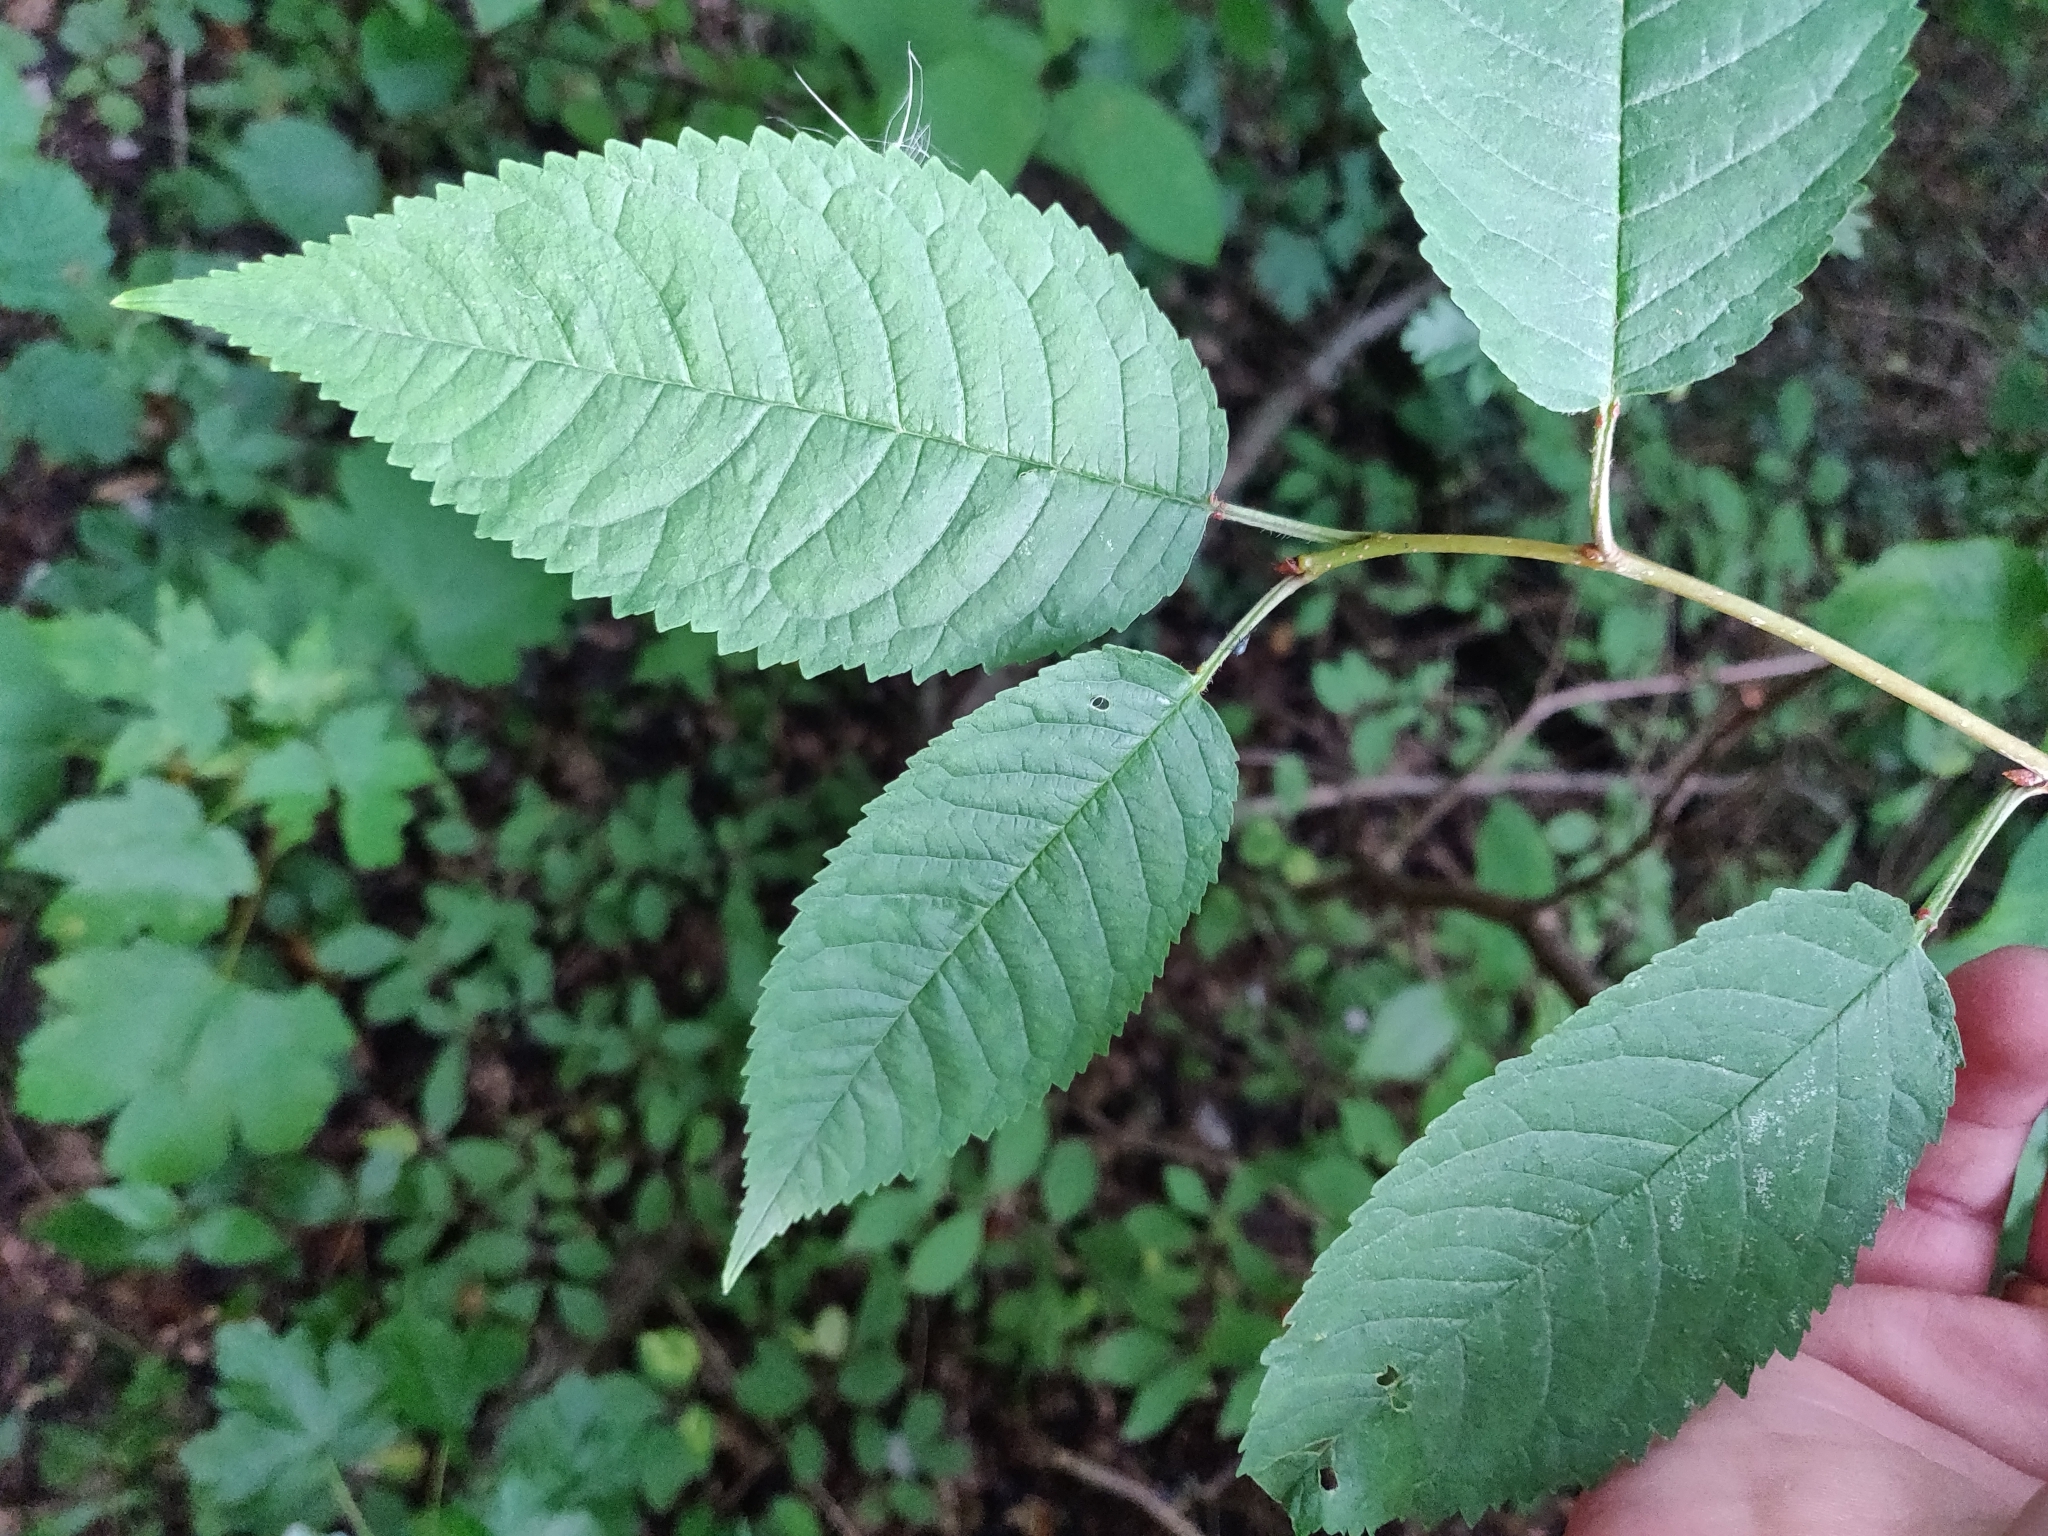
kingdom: Plantae
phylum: Tracheophyta
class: Magnoliopsida
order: Rosales
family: Rosaceae
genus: Prunus
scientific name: Prunus avium
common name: Sweet cherry
